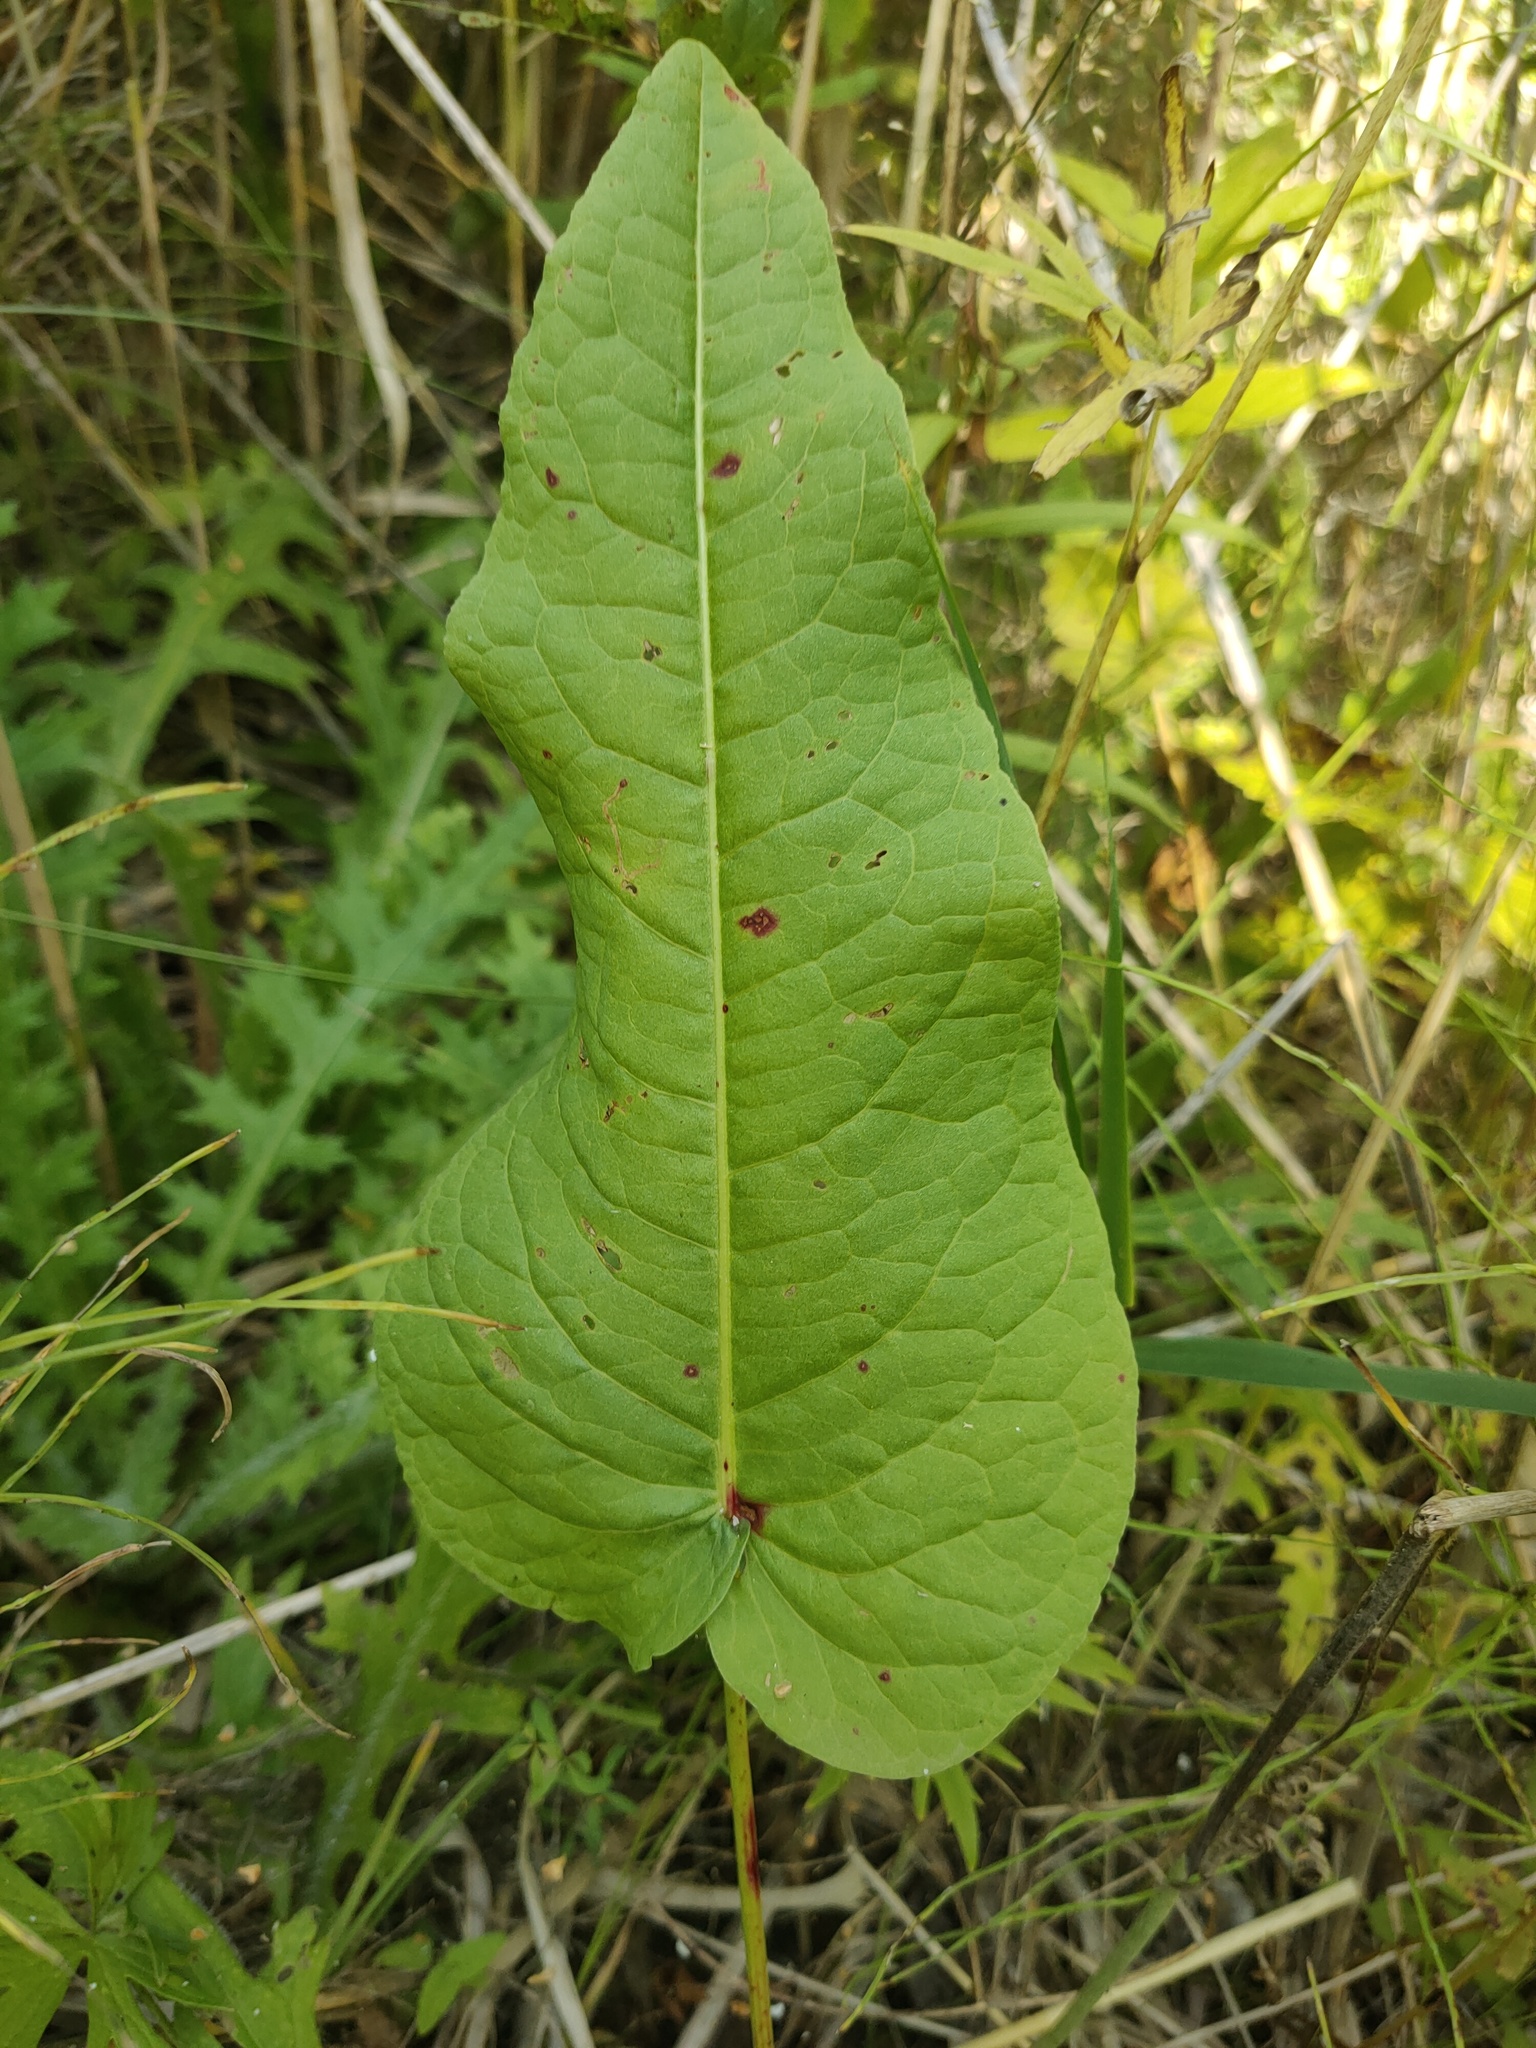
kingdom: Plantae
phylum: Tracheophyta
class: Magnoliopsida
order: Caryophyllales
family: Polygonaceae
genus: Rumex
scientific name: Rumex aquaticus
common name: Scottish dock
